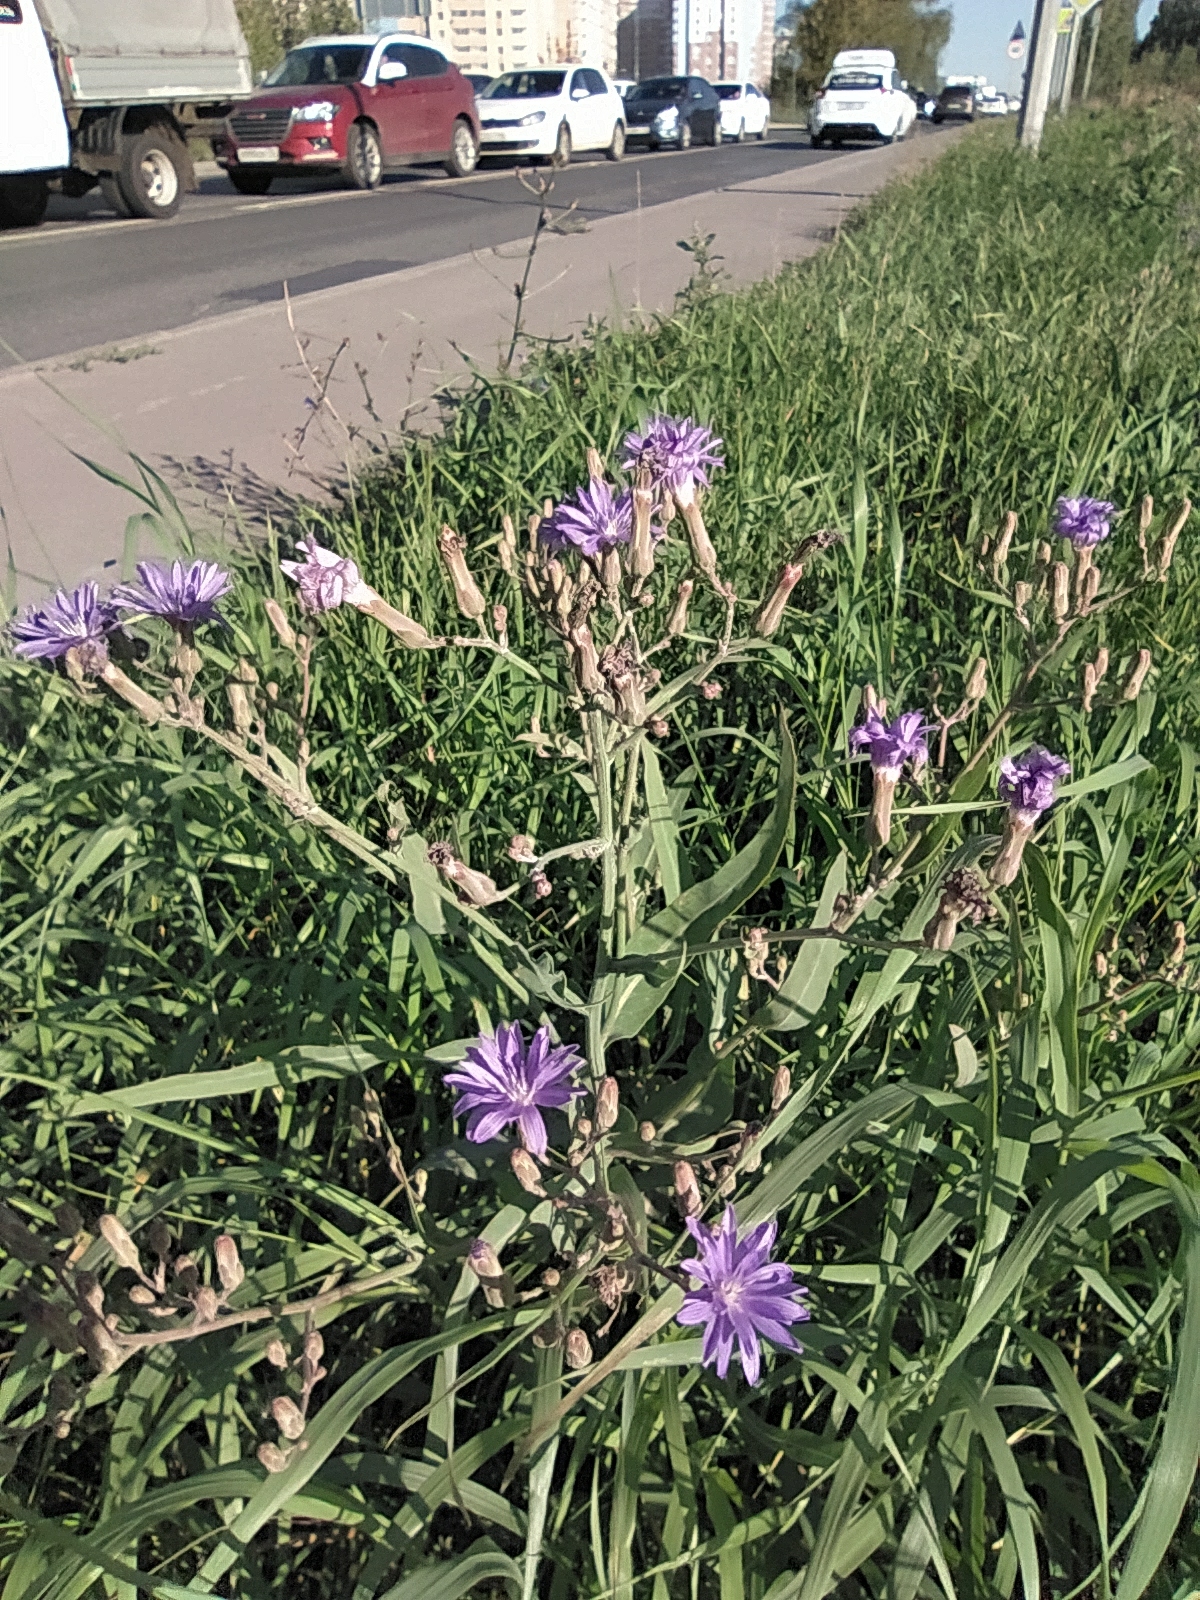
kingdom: Plantae
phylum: Tracheophyta
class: Magnoliopsida
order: Asterales
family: Asteraceae
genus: Lactuca
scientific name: Lactuca tatarica
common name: Blue lettuce
